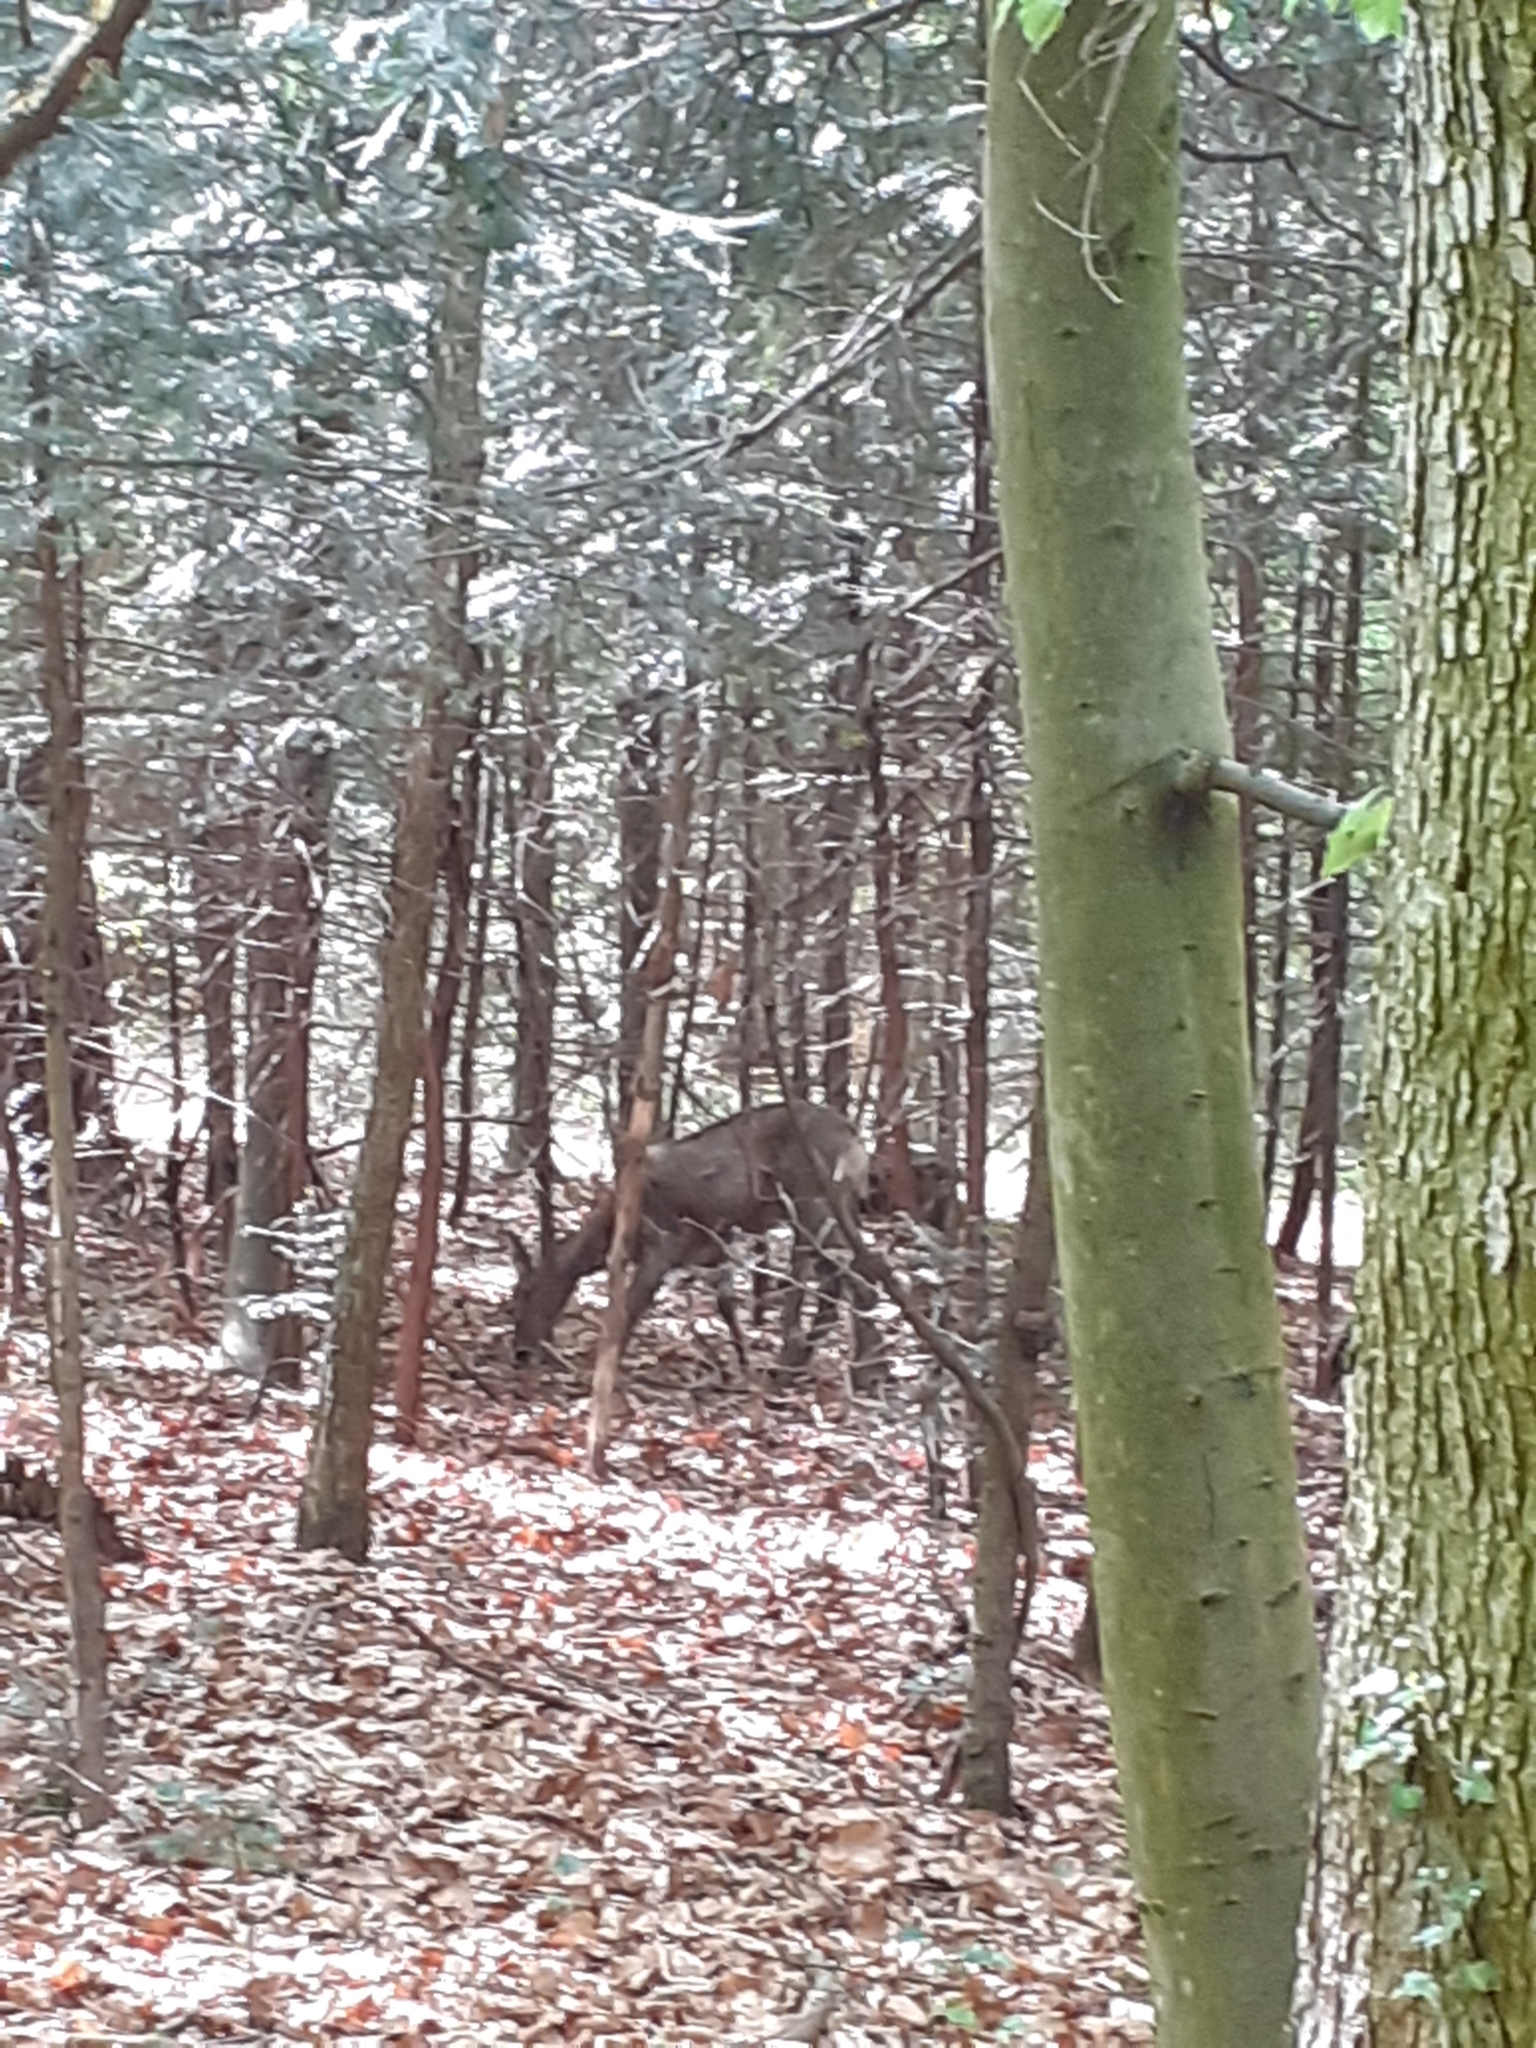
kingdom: Animalia
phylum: Chordata
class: Mammalia
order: Artiodactyla
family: Cervidae
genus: Capreolus
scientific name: Capreolus capreolus
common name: Western roe deer
